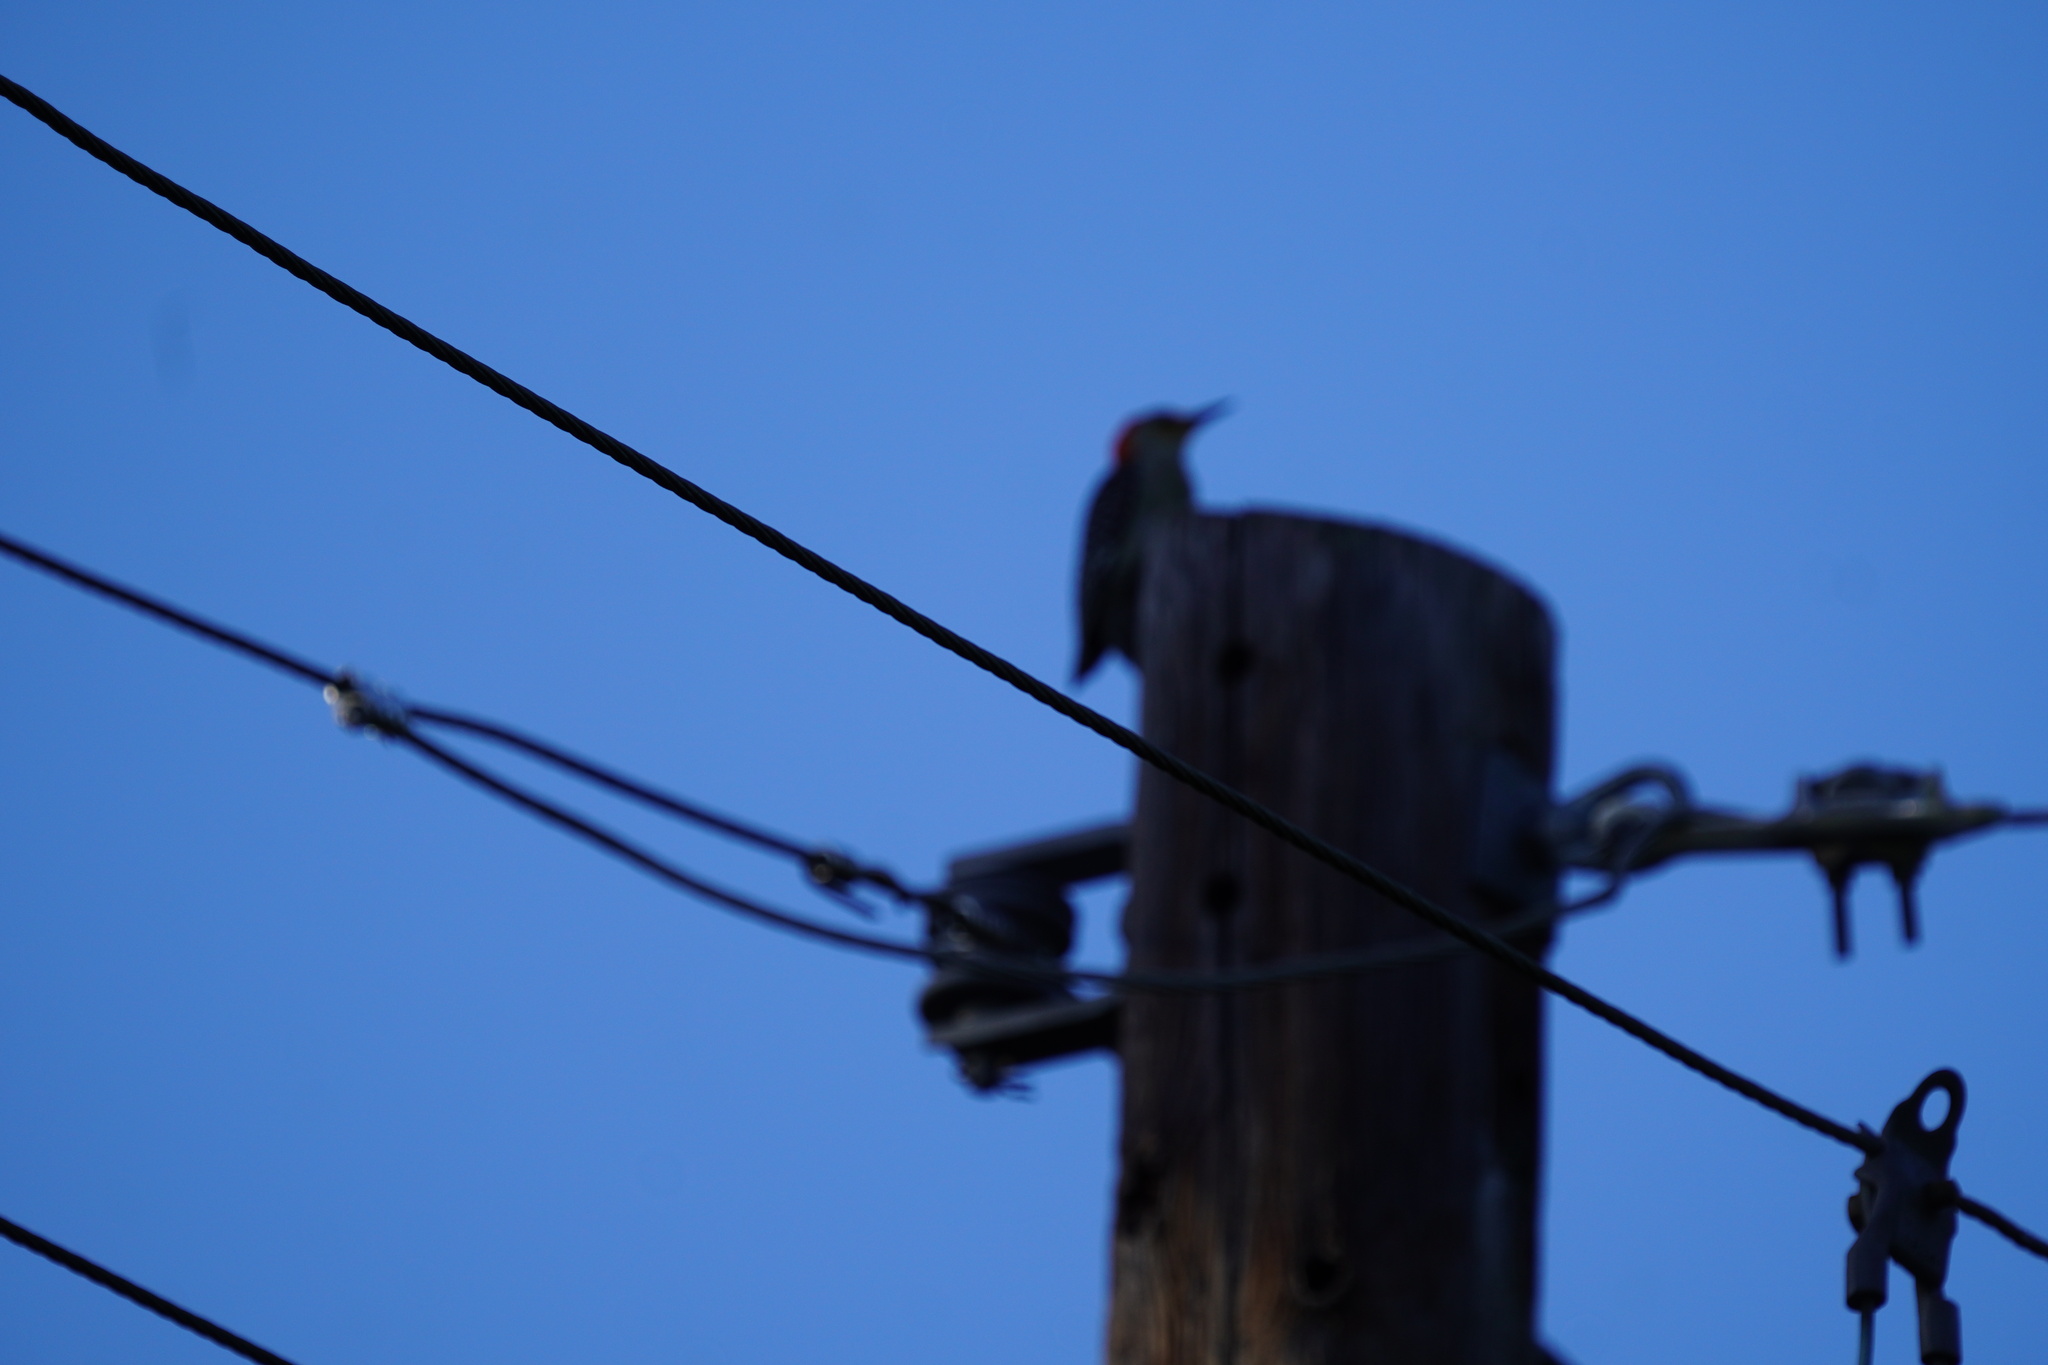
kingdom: Animalia
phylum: Chordata
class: Aves
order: Piciformes
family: Picidae
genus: Melanerpes
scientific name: Melanerpes carolinus
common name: Red-bellied woodpecker
